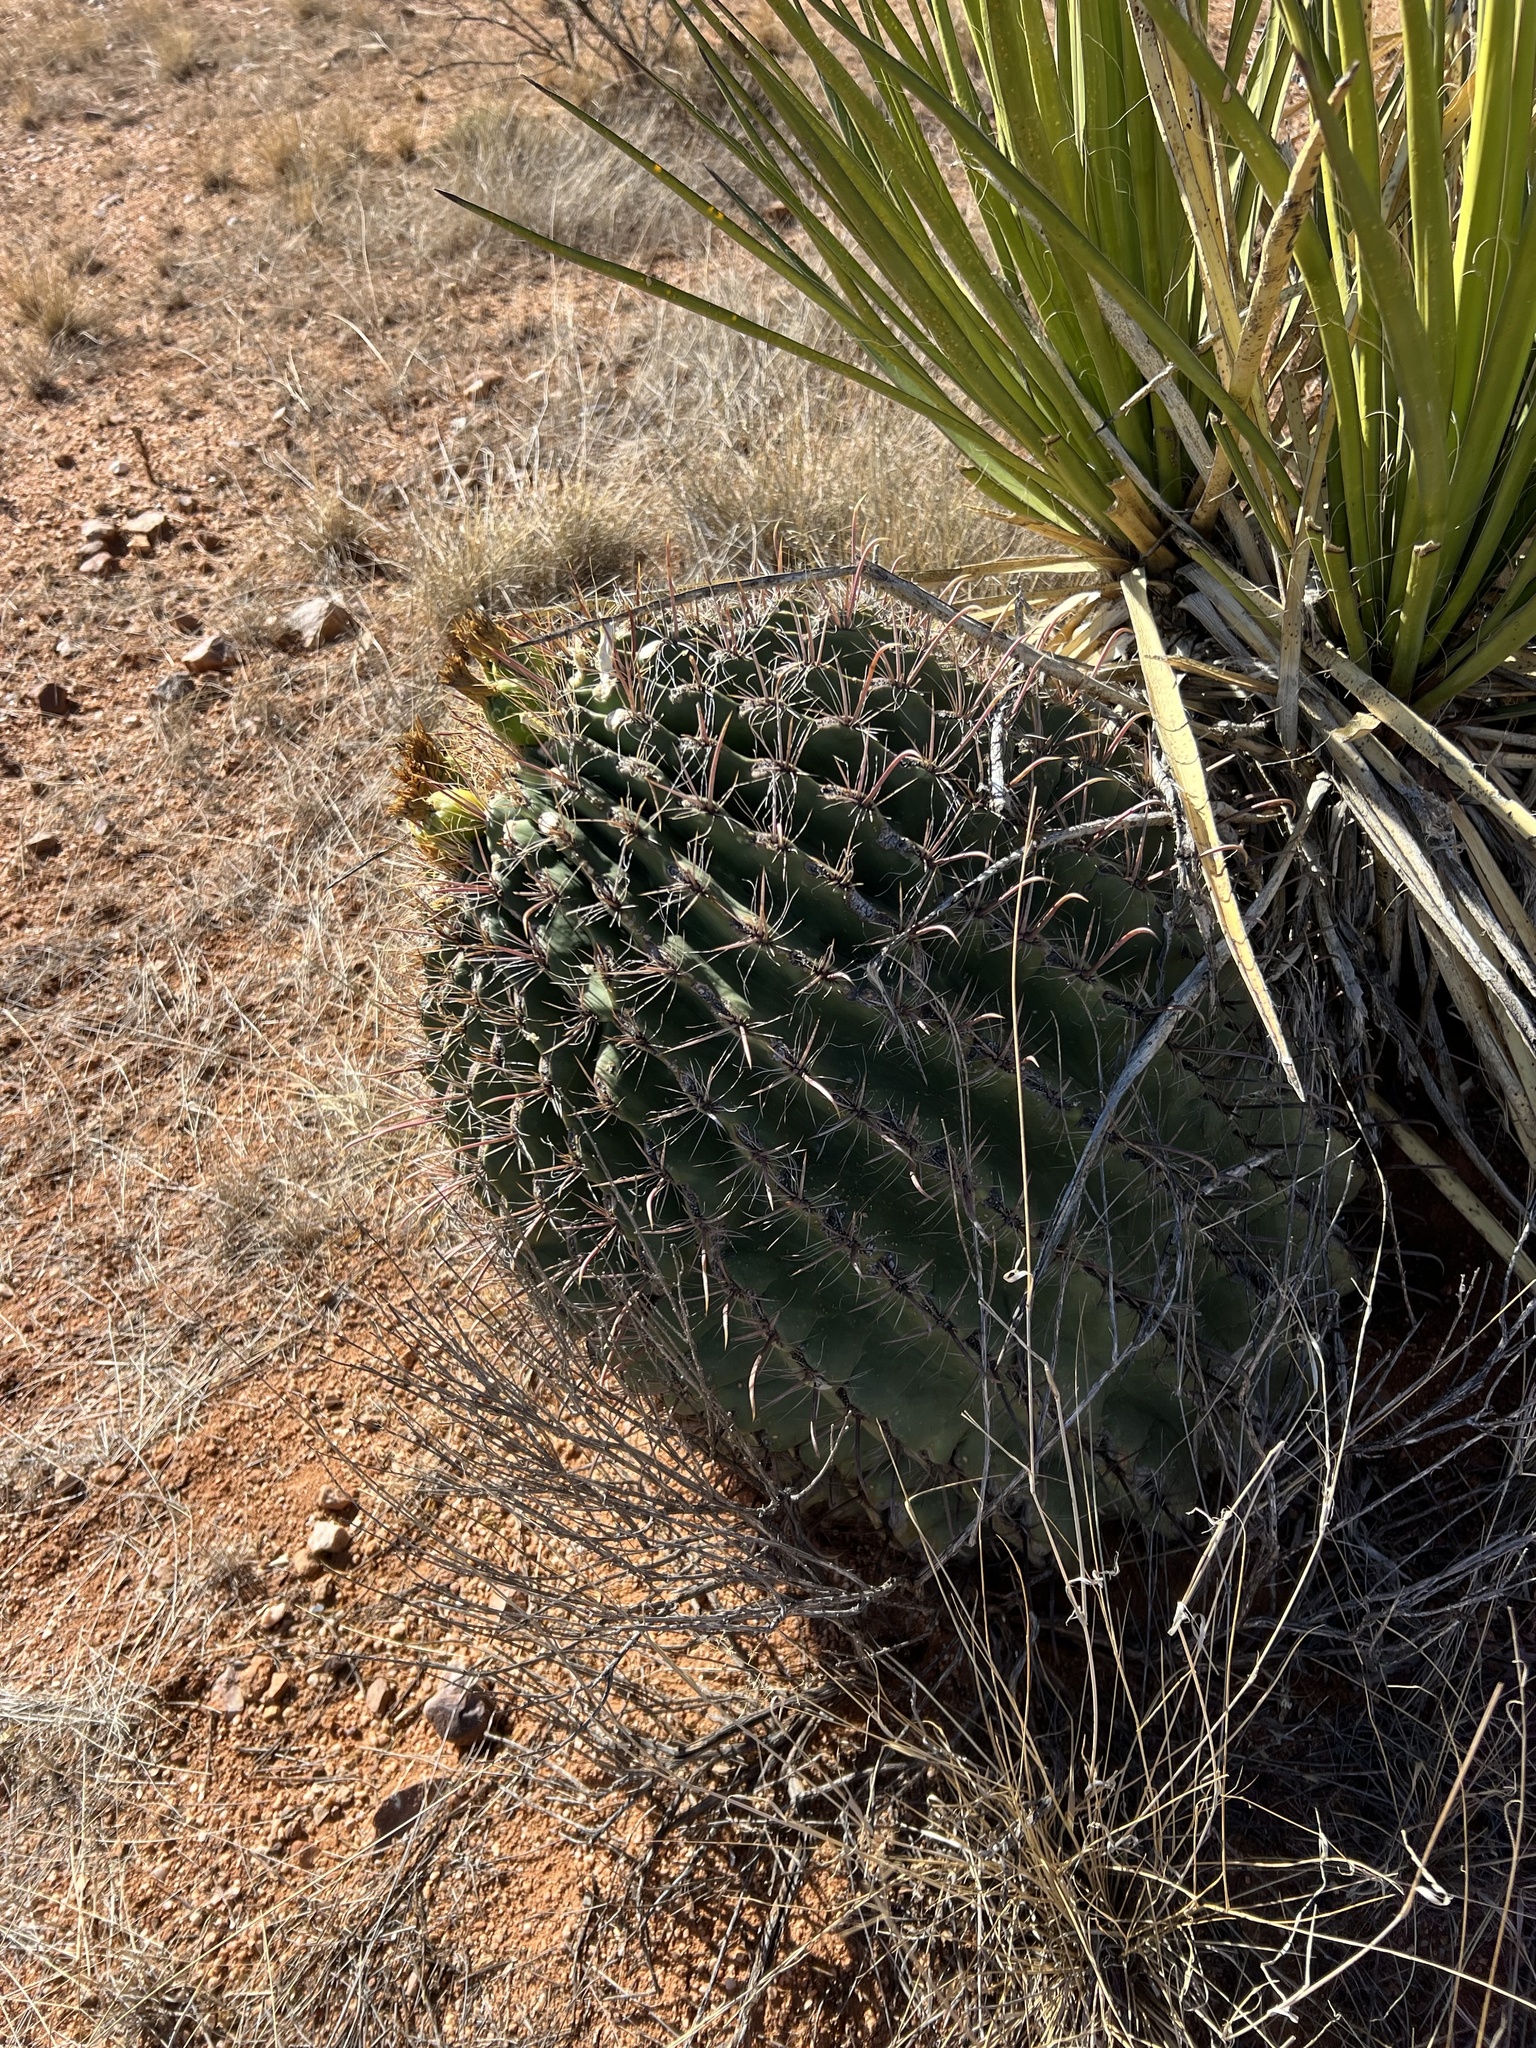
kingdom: Plantae
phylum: Tracheophyta
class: Magnoliopsida
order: Caryophyllales
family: Cactaceae
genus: Ferocactus
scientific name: Ferocactus wislizeni
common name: Candy barrel cactus
